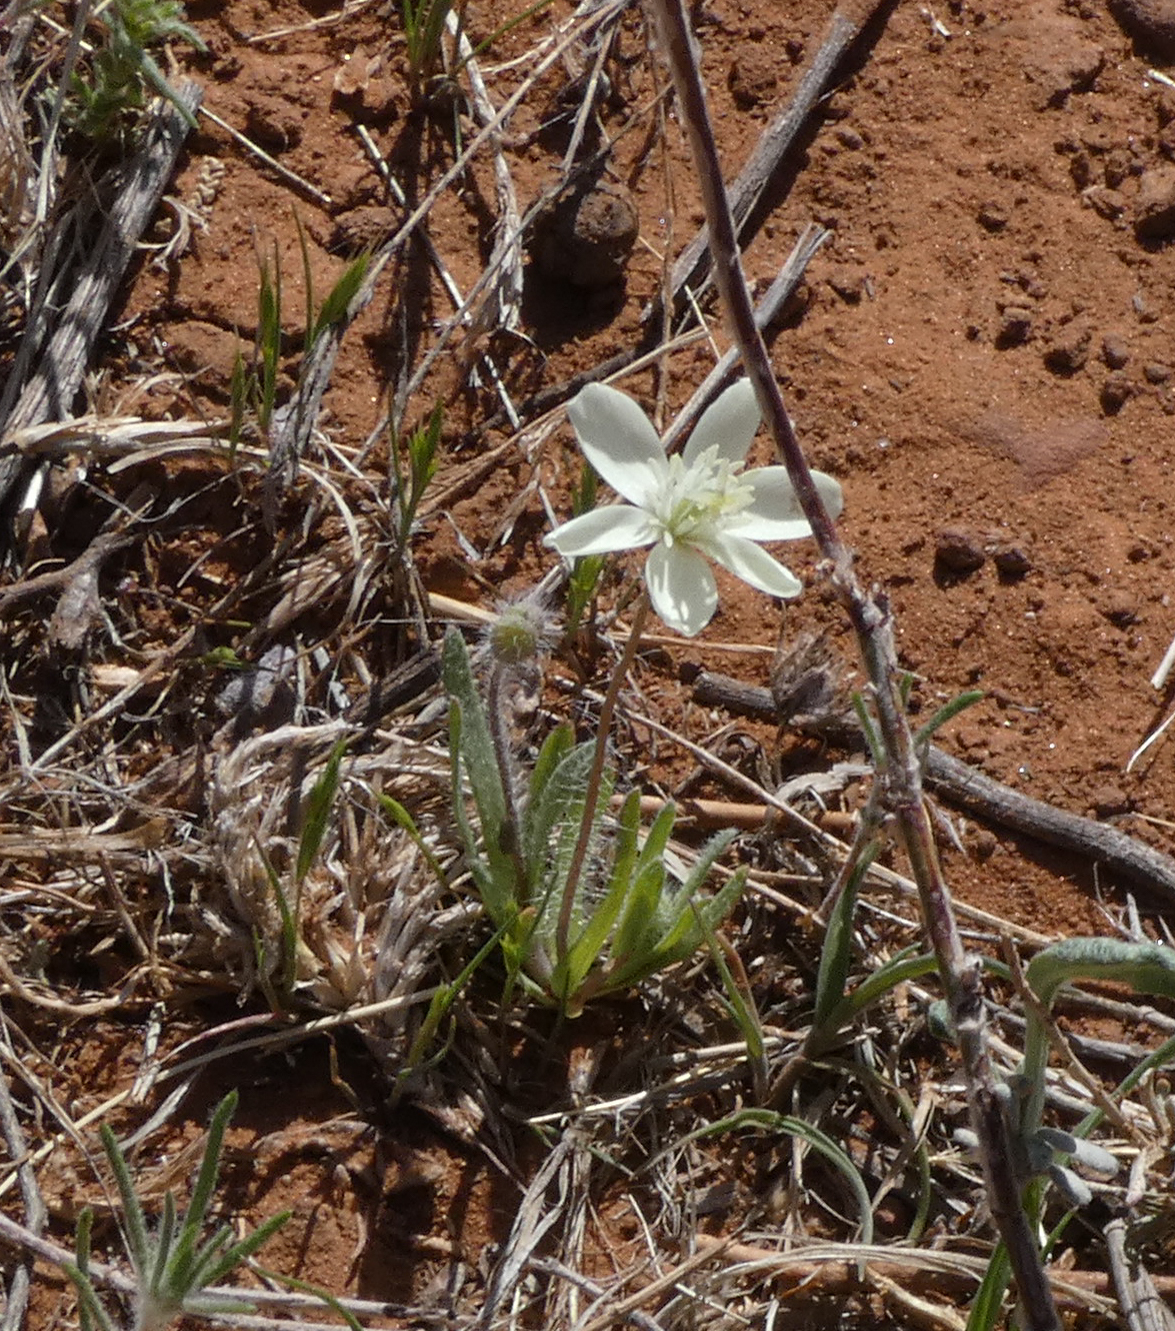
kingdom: Plantae
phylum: Tracheophyta
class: Magnoliopsida
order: Ranunculales
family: Papaveraceae
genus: Platystemon
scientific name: Platystemon californicus
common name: Cream-cups
